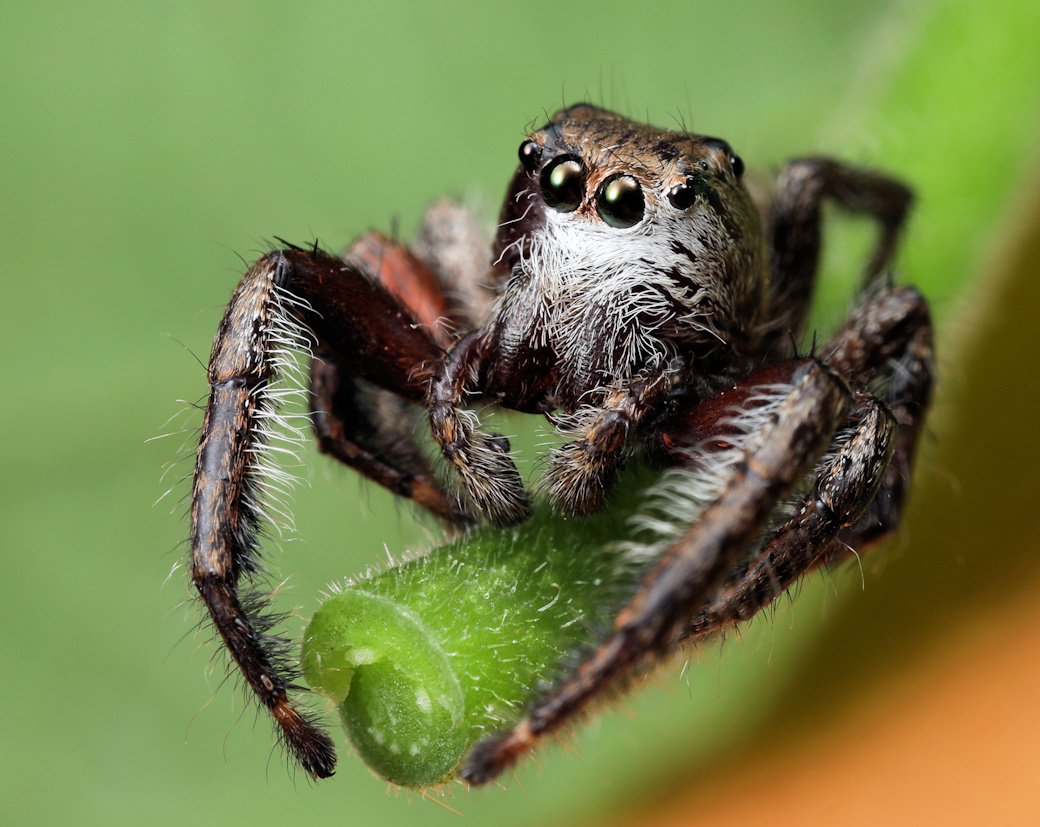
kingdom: Animalia
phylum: Arthropoda
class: Arachnida
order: Araneae
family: Salticidae
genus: Hyllus
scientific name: Hyllus brevitarsis
